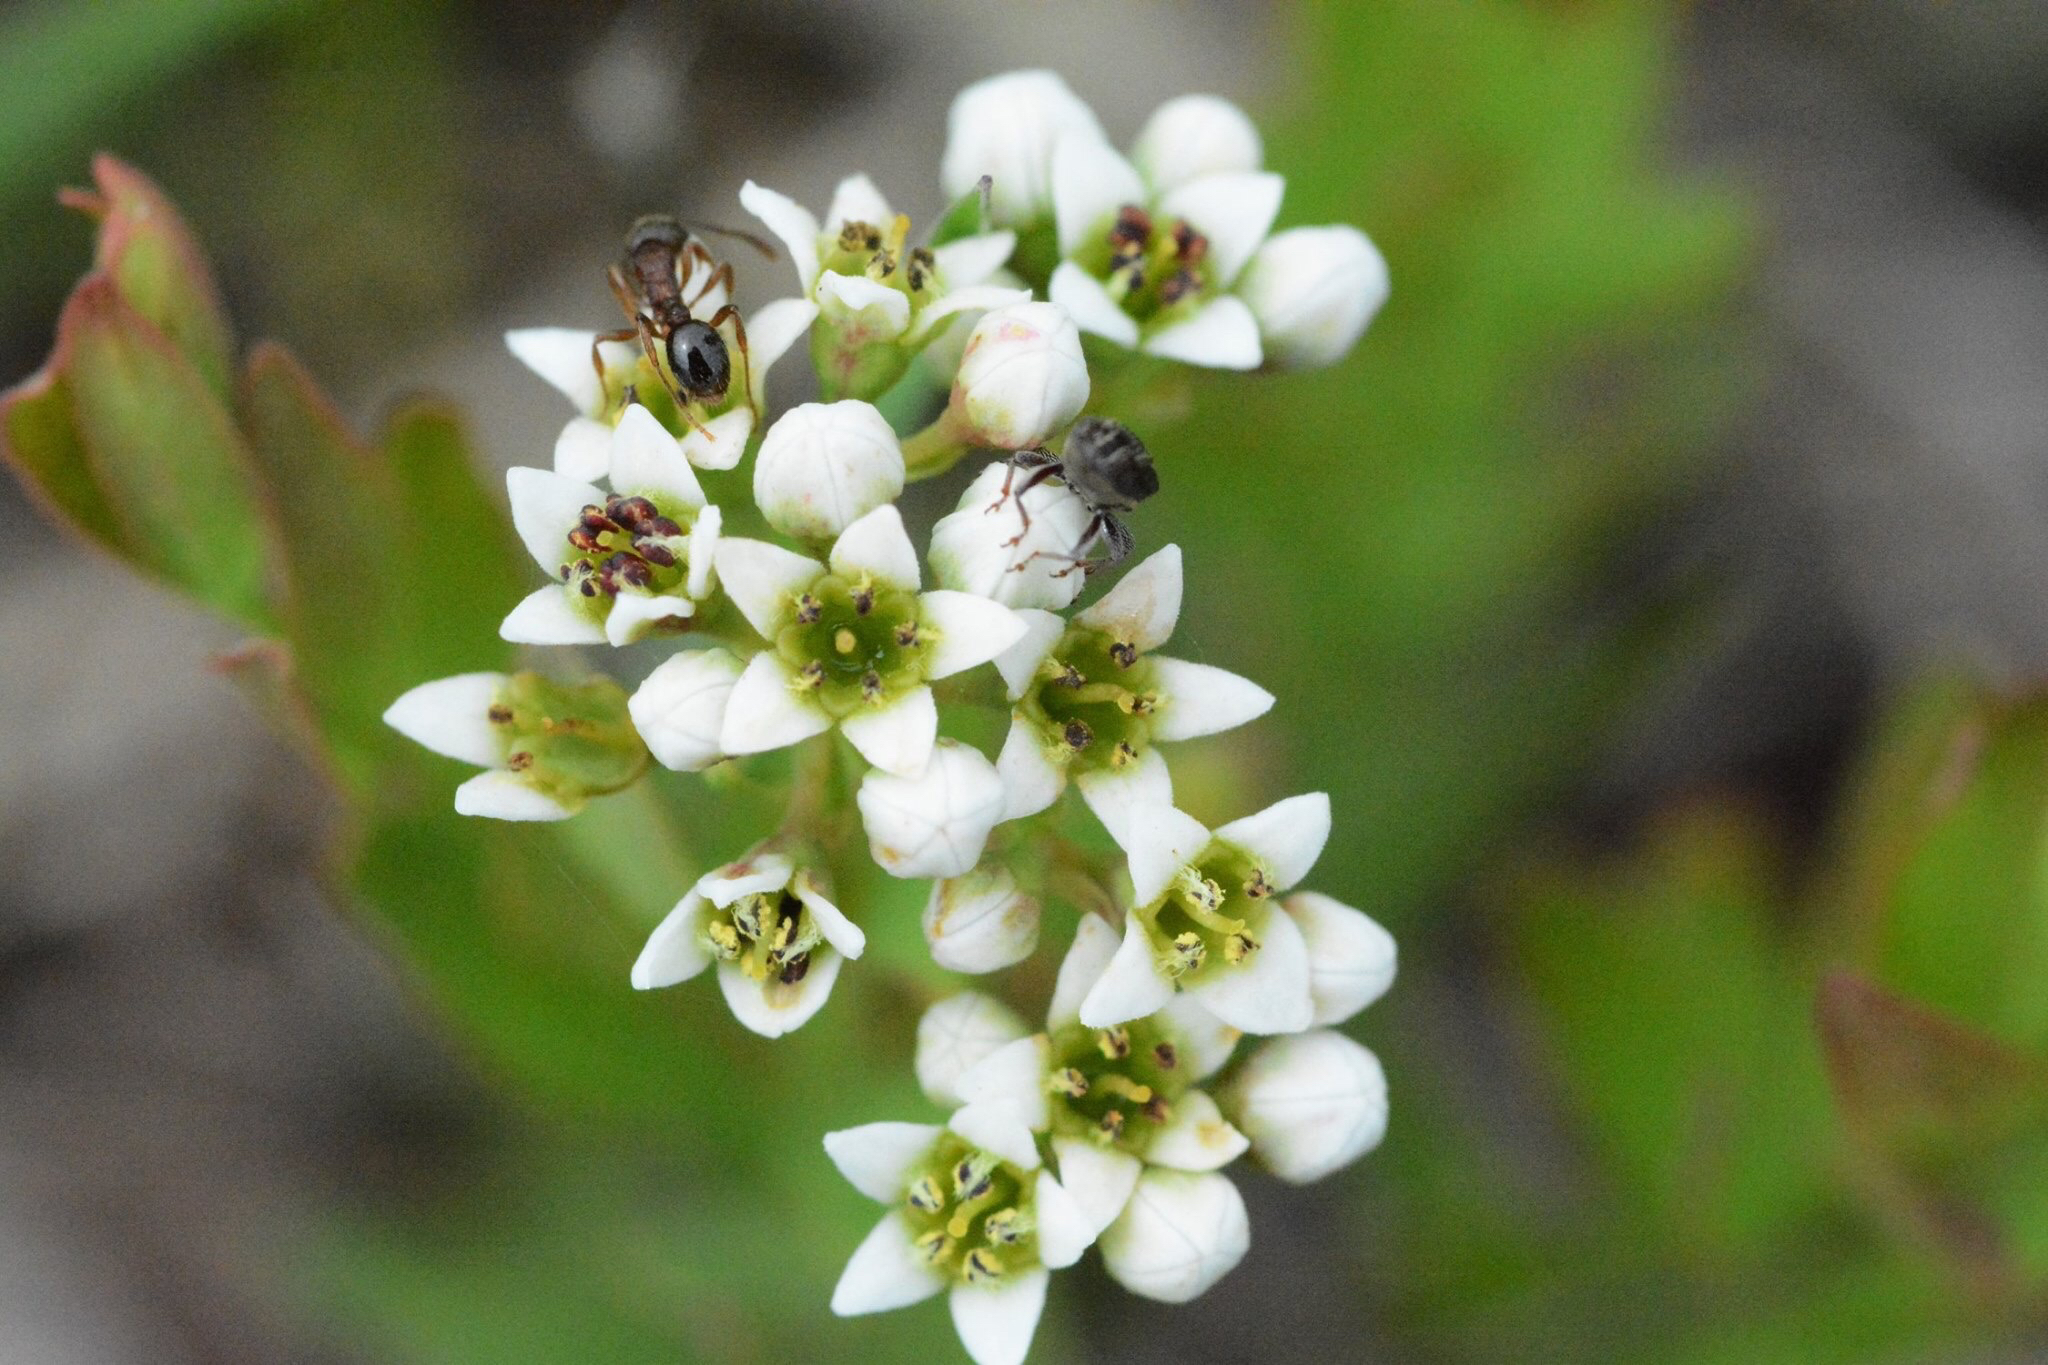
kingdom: Plantae
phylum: Tracheophyta
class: Magnoliopsida
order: Santalales
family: Comandraceae
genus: Comandra
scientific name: Comandra umbellata
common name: Bastard toadflax
